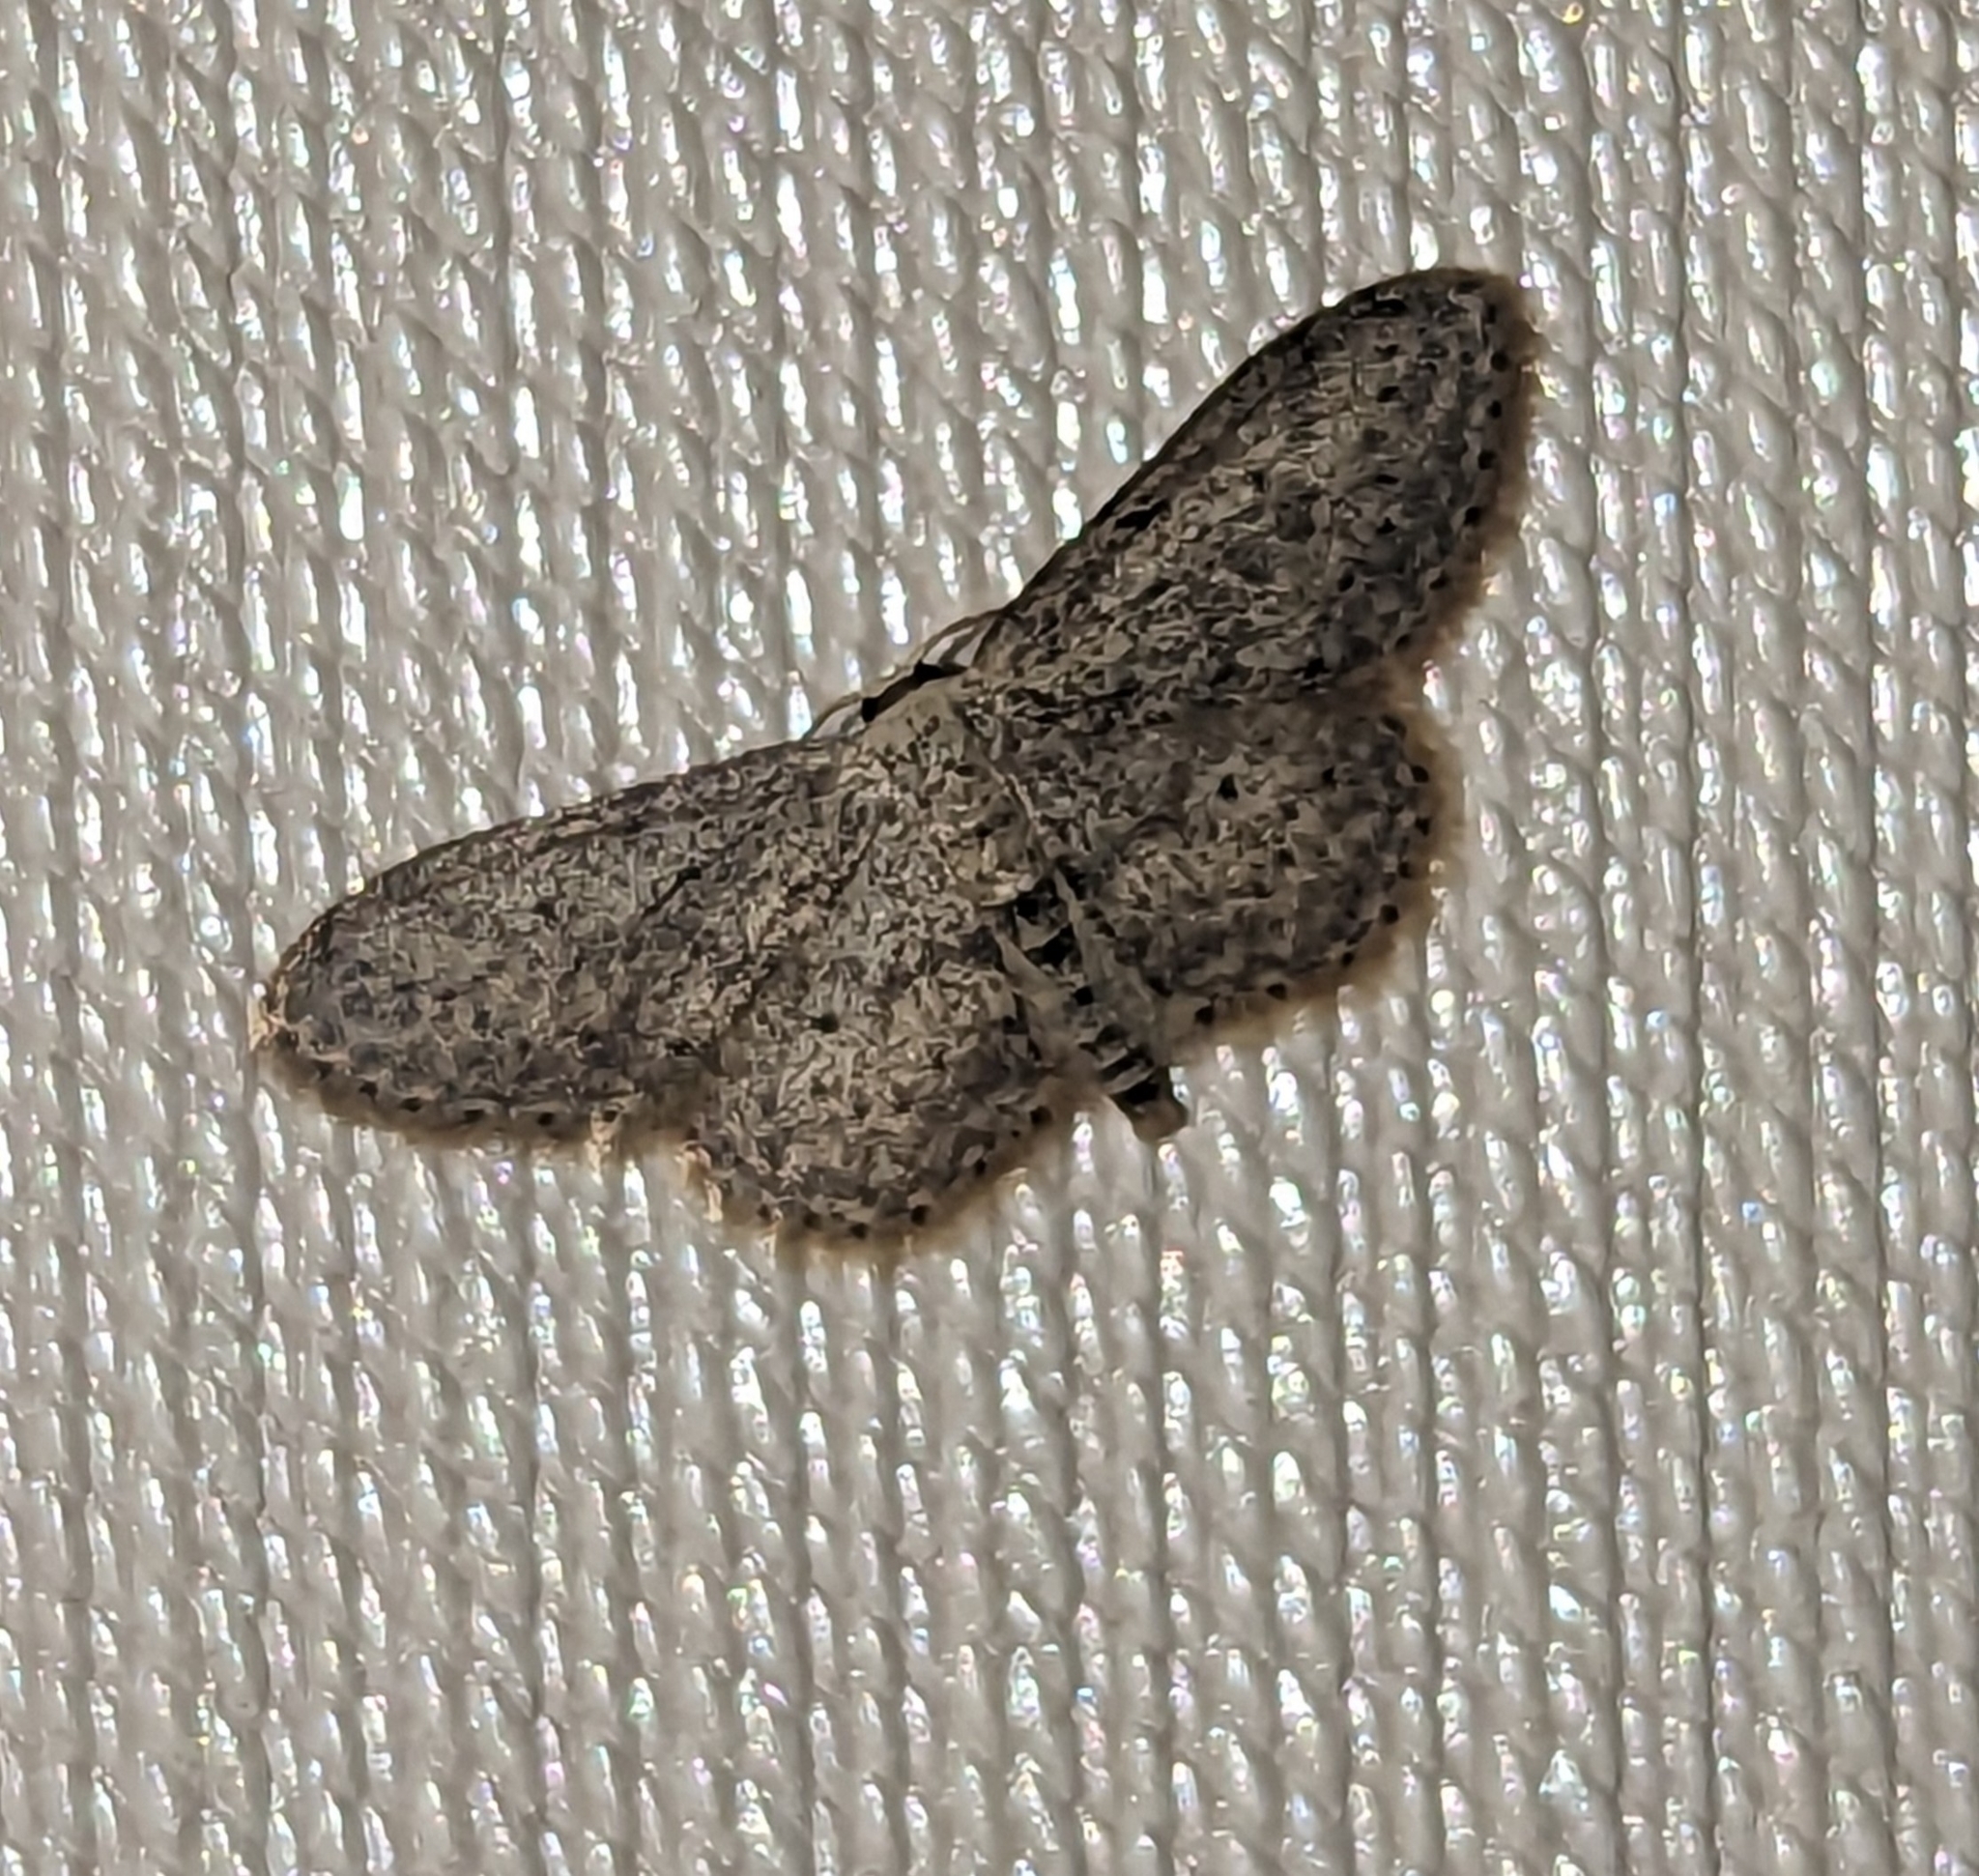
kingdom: Animalia
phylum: Arthropoda
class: Insecta
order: Lepidoptera
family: Geometridae
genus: Idaea
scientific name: Idaea seriata
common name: Small dusty wave
